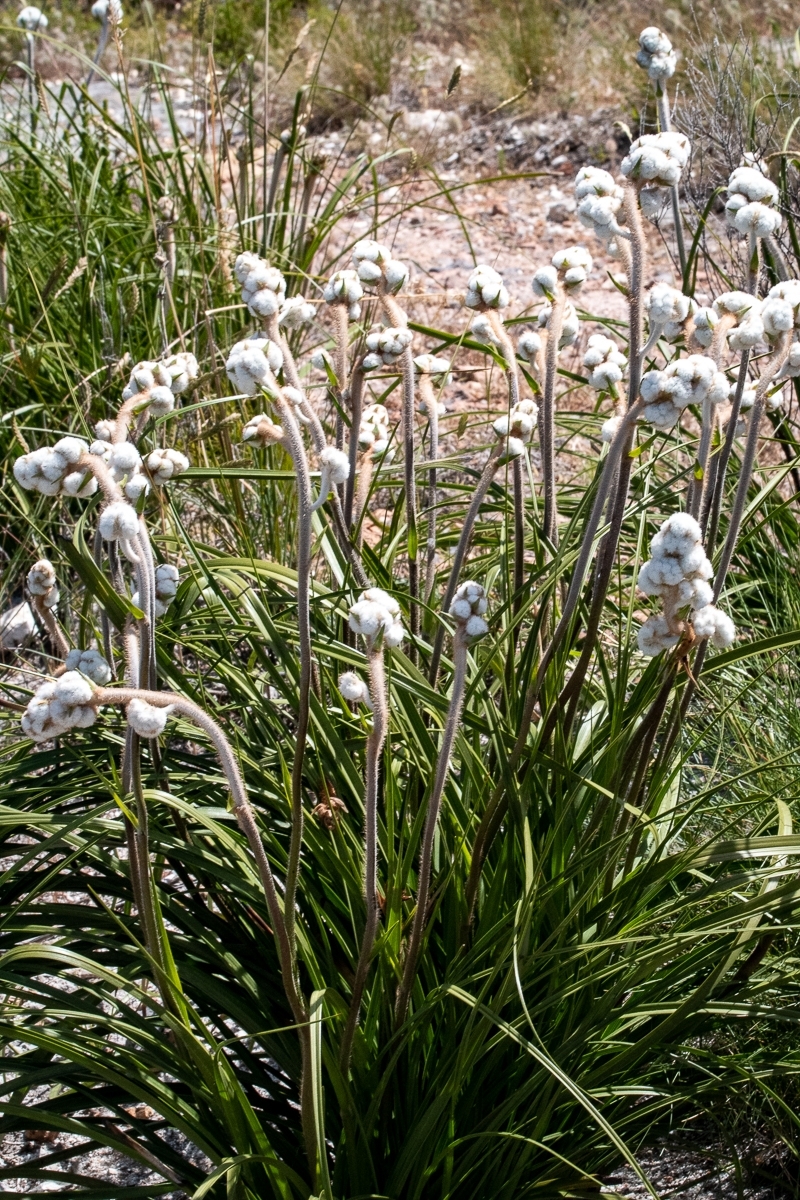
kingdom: Plantae
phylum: Tracheophyta
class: Liliopsida
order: Asparagales
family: Lanariaceae
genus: Lanaria
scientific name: Lanaria lanata
